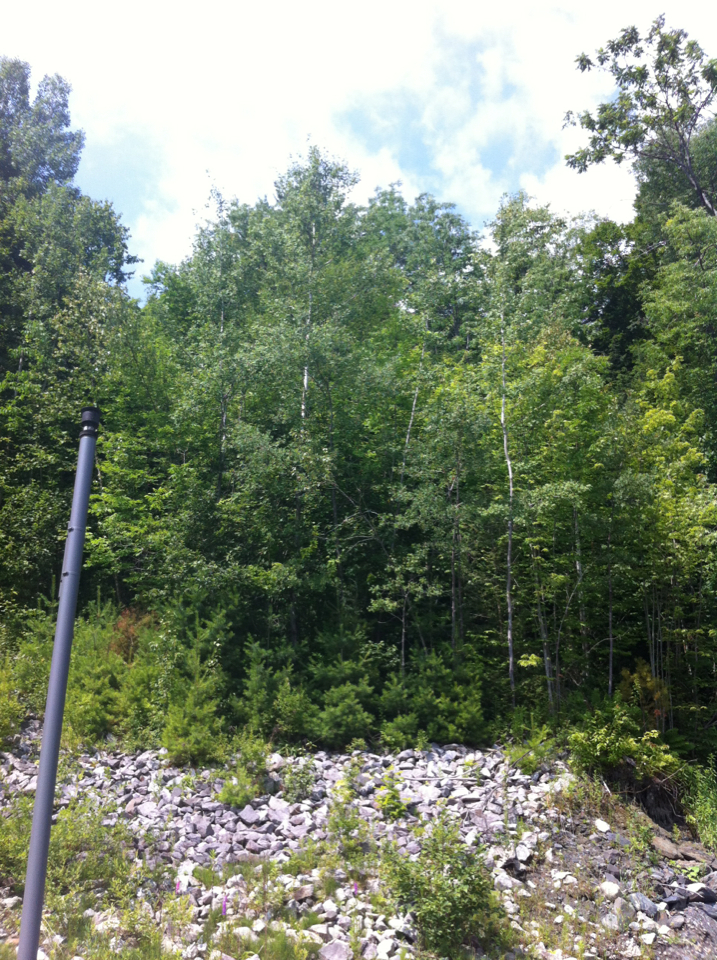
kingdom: Plantae
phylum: Tracheophyta
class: Magnoliopsida
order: Malpighiales
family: Salicaceae
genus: Populus
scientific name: Populus tremuloides
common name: Quaking aspen
